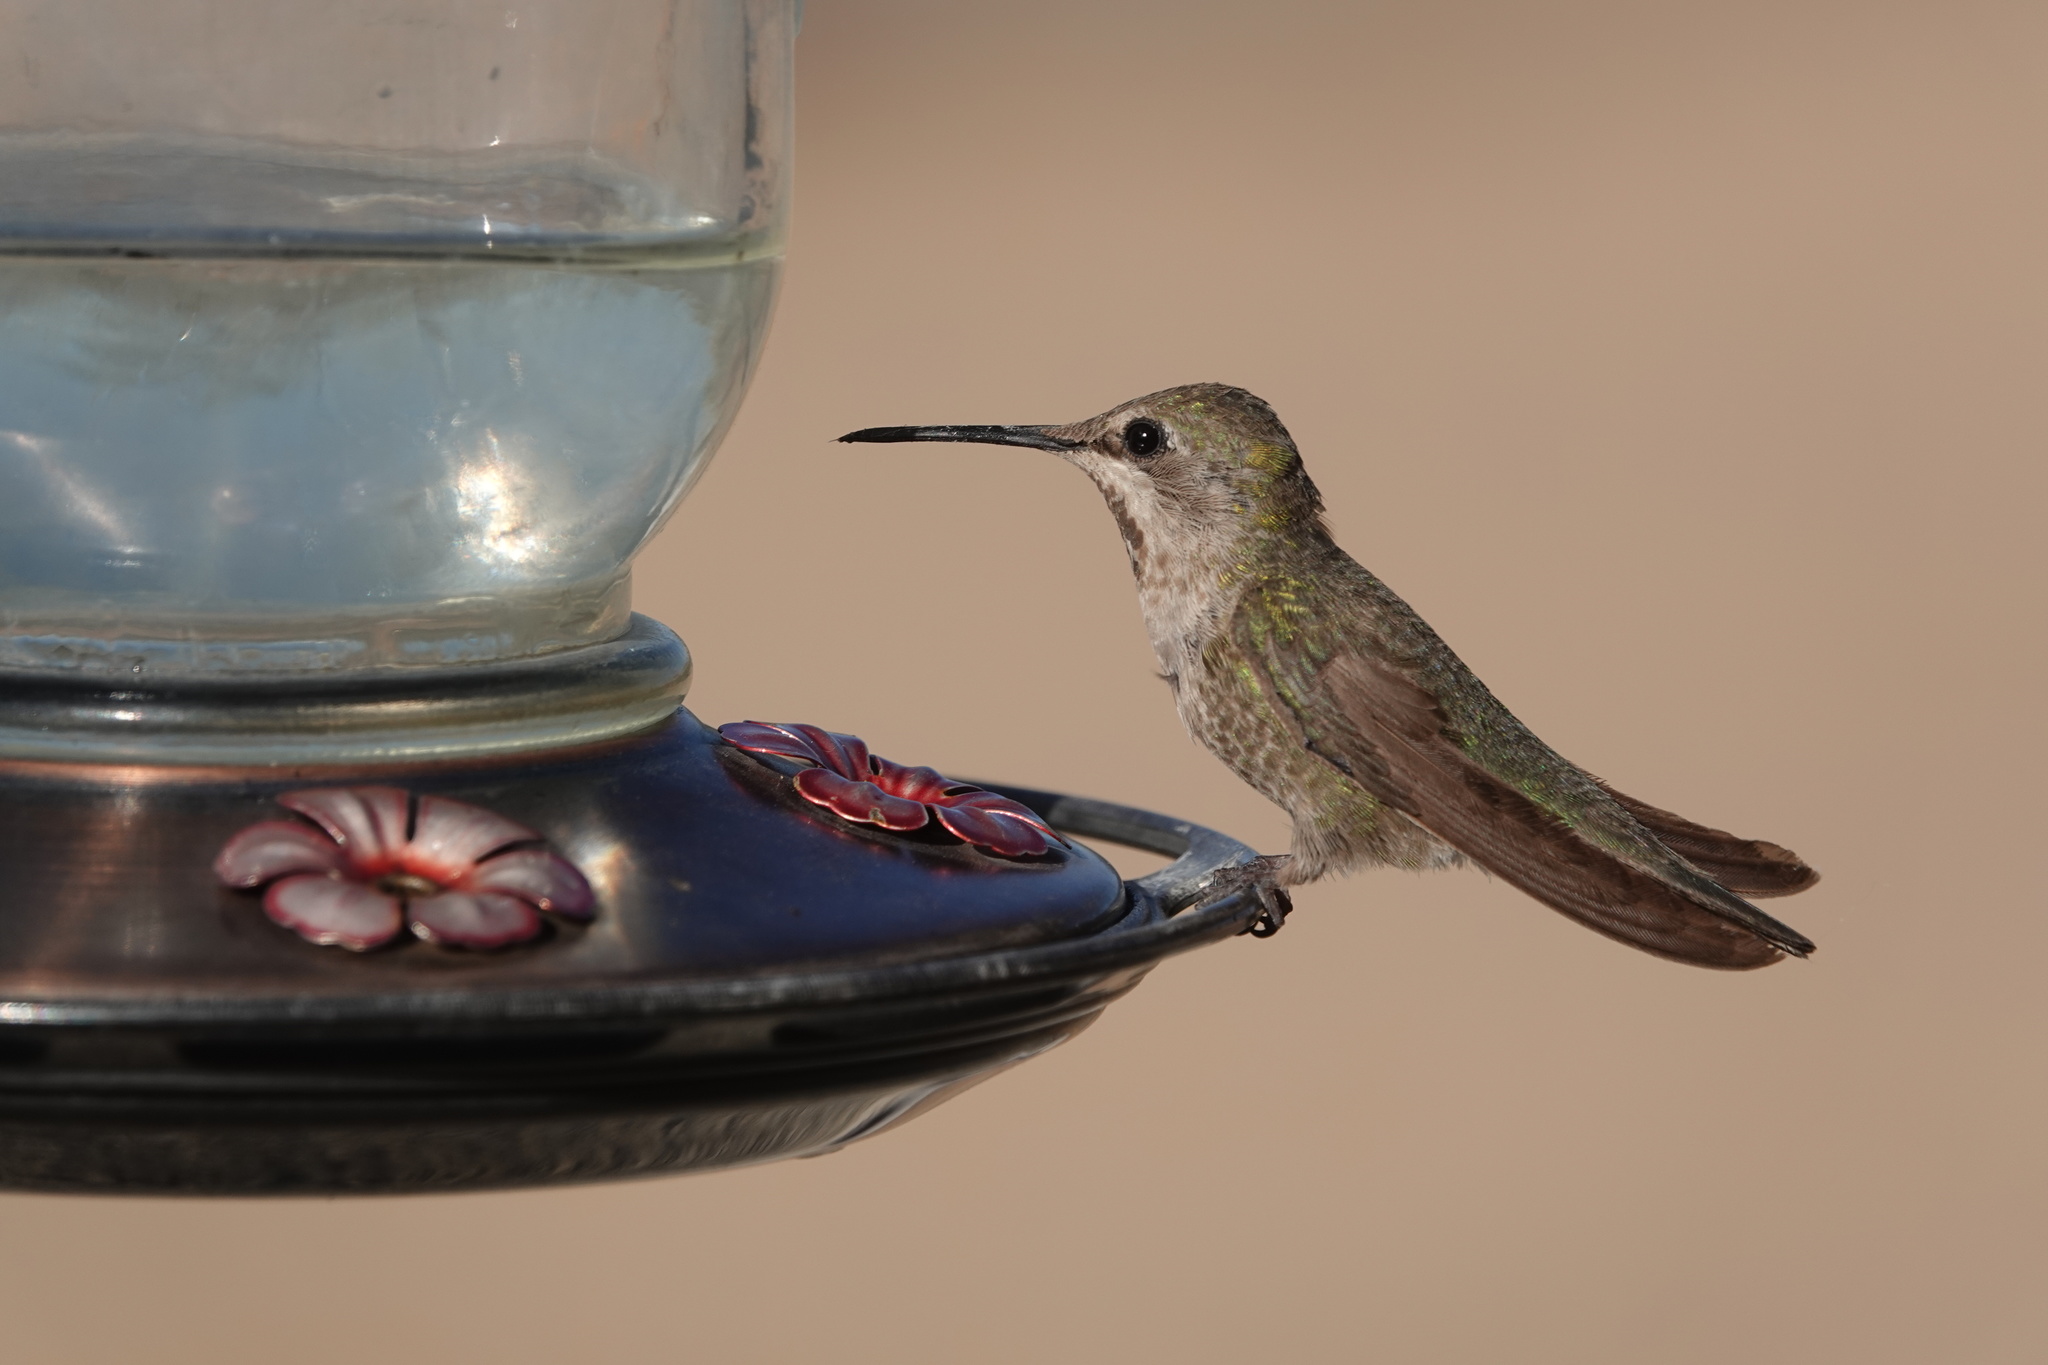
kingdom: Animalia
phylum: Chordata
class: Aves
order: Apodiformes
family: Trochilidae
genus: Calypte
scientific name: Calypte anna
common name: Anna's hummingbird
